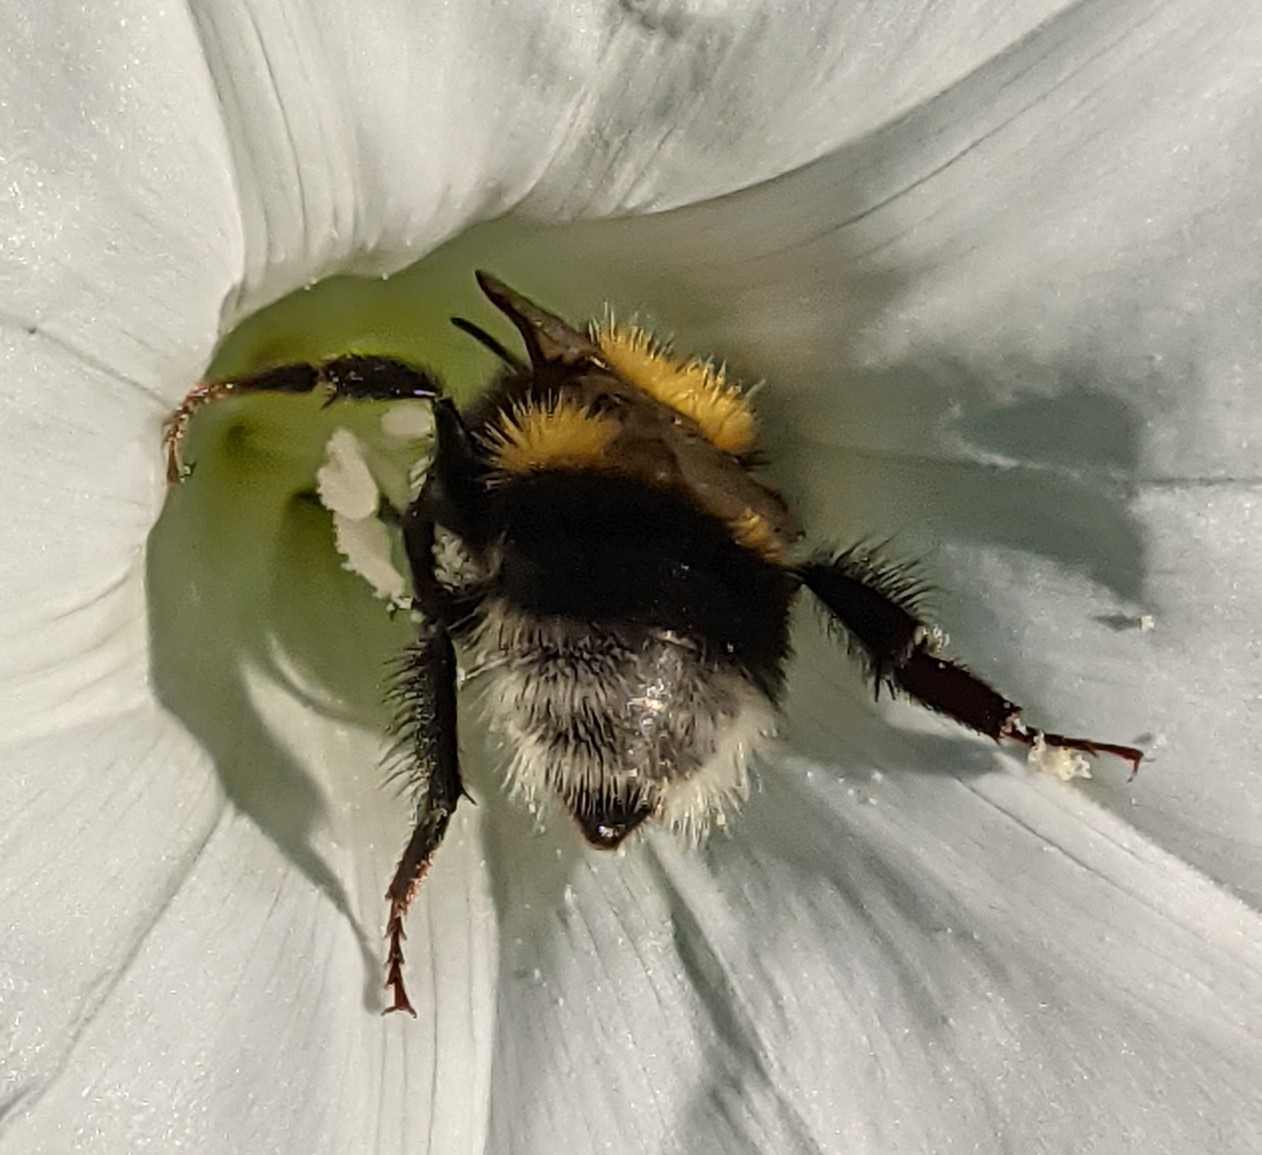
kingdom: Animalia
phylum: Arthropoda
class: Insecta
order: Hymenoptera
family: Apidae
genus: Bombus
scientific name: Bombus hortorum
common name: Garden bumblebee
